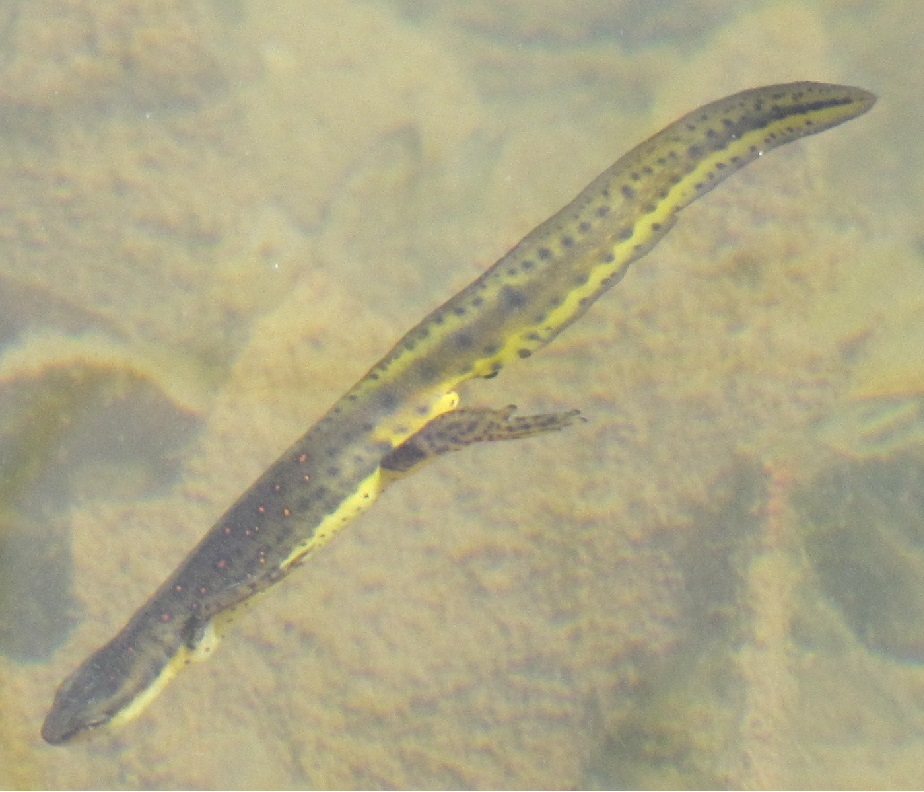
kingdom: Animalia
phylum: Chordata
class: Amphibia
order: Caudata
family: Salamandridae
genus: Notophthalmus
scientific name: Notophthalmus viridescens
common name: Eastern newt
